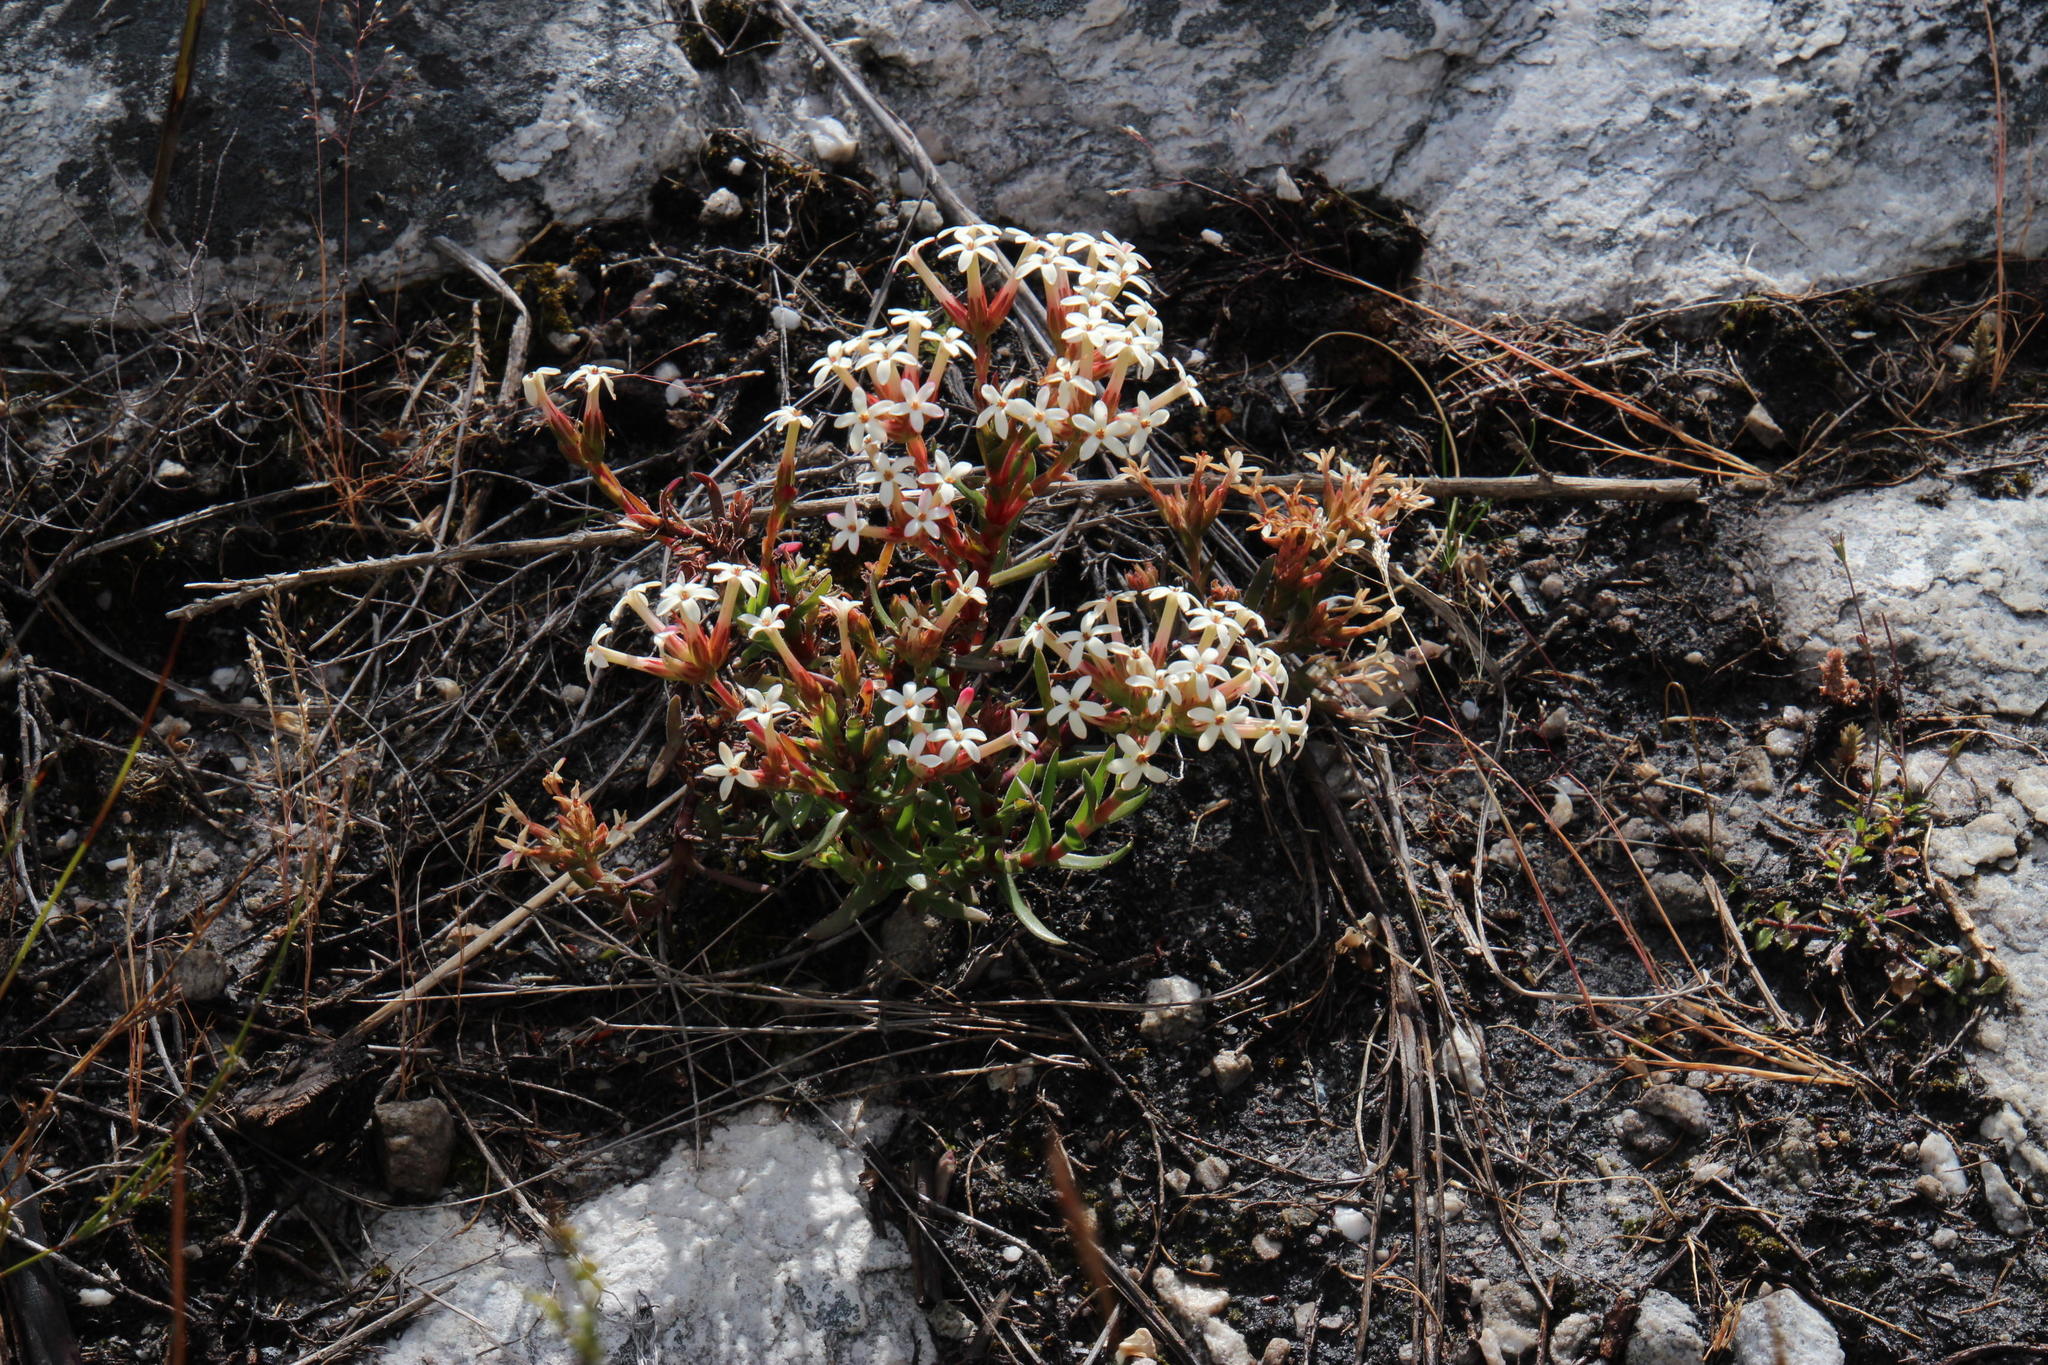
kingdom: Plantae
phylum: Tracheophyta
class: Magnoliopsida
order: Saxifragales
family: Crassulaceae
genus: Crassula
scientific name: Crassula fascicularis
